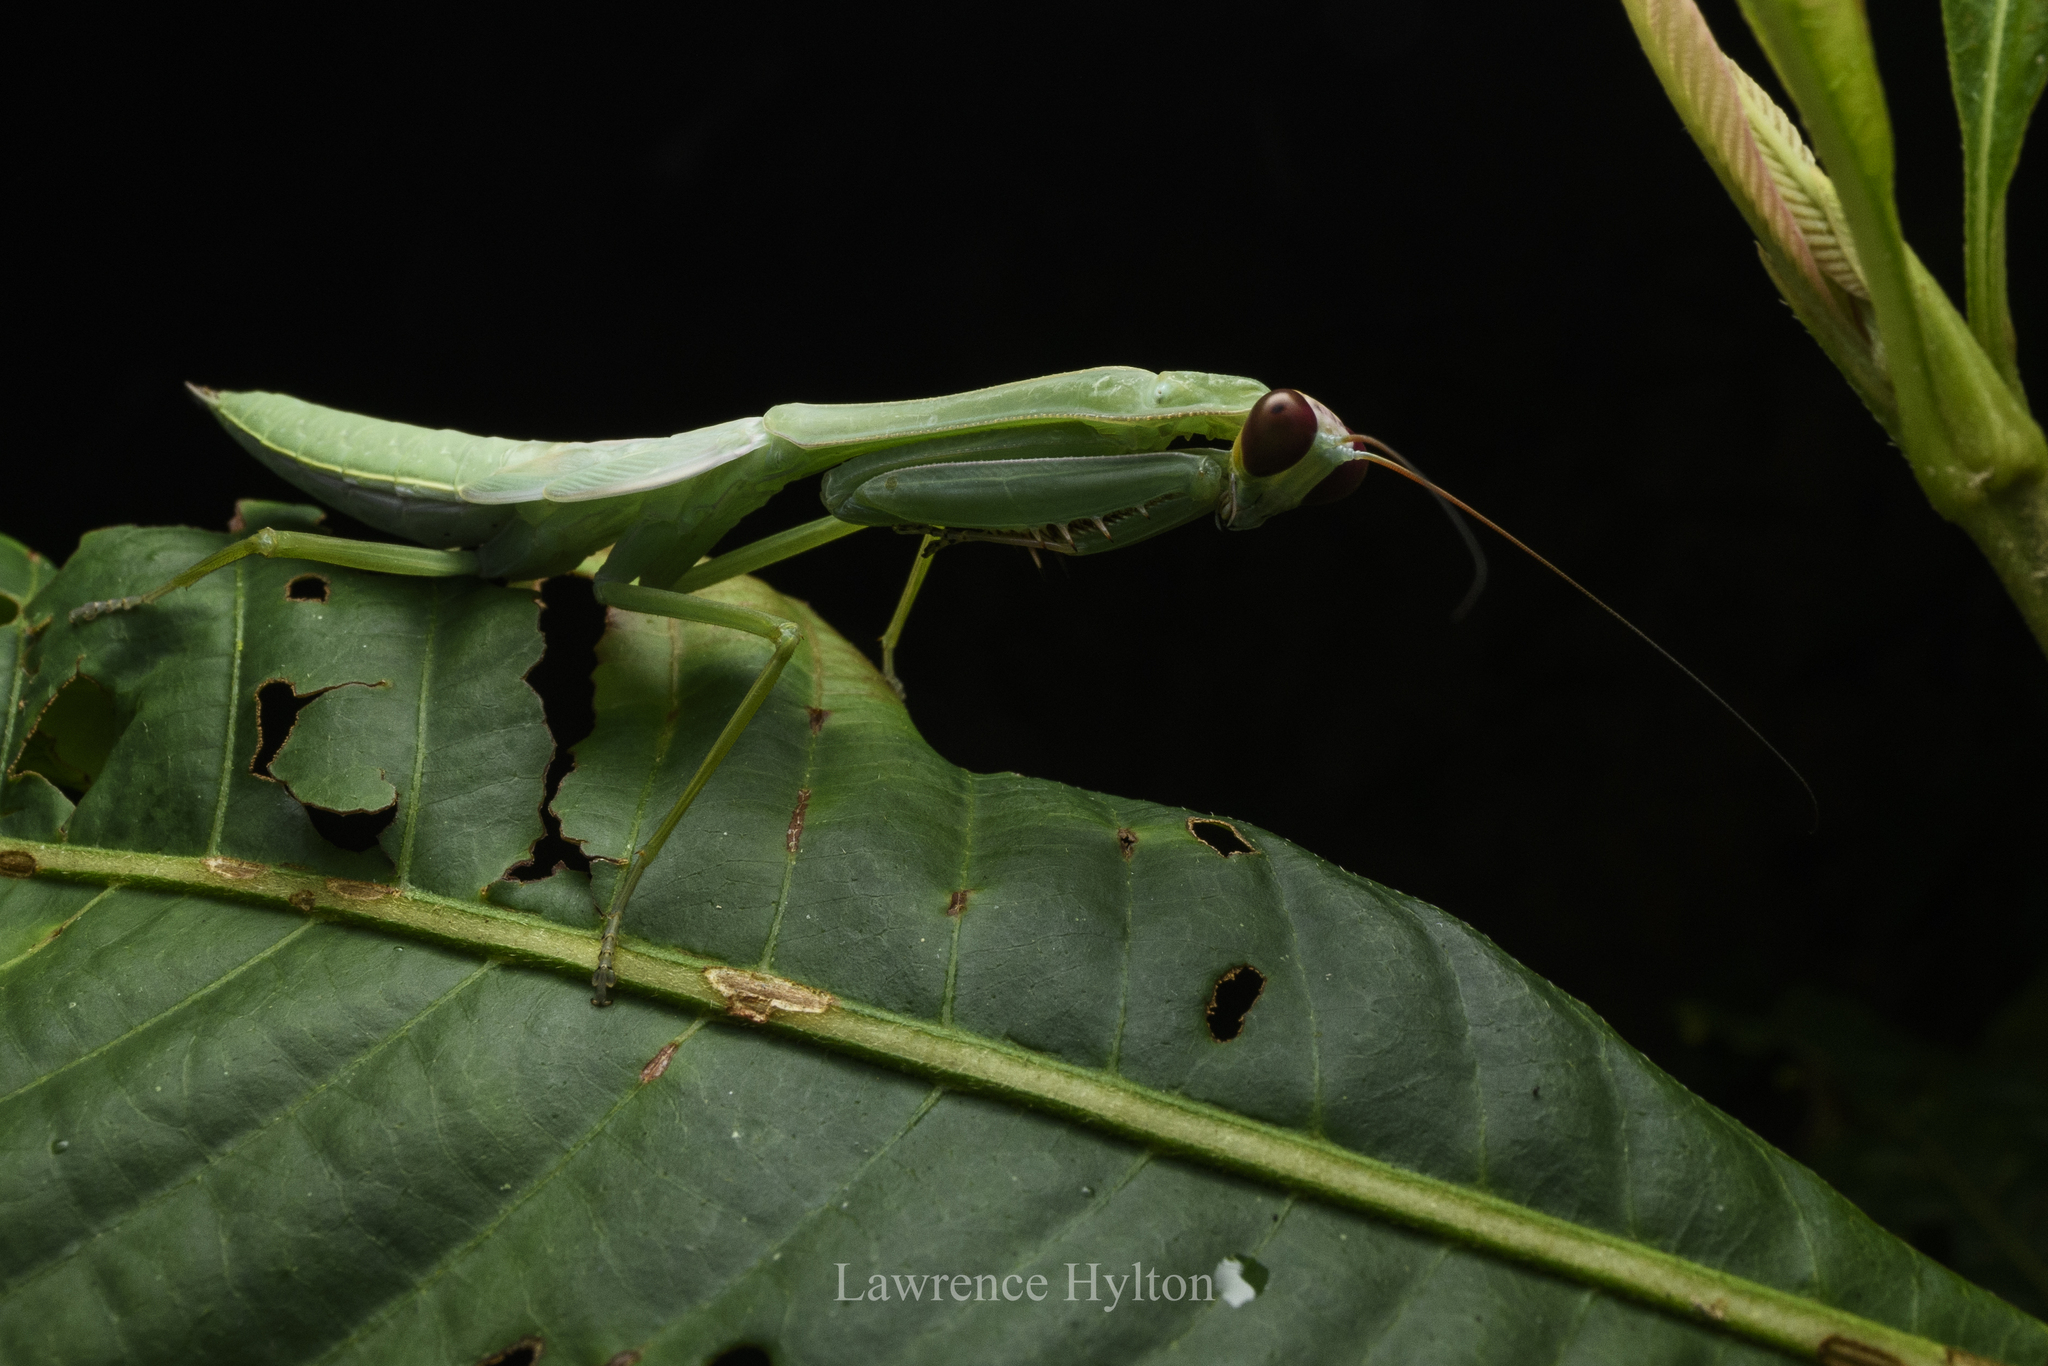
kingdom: Animalia
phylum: Arthropoda
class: Insecta
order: Mantodea
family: Mantidae
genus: Hierodula
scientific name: Hierodula dyaka
